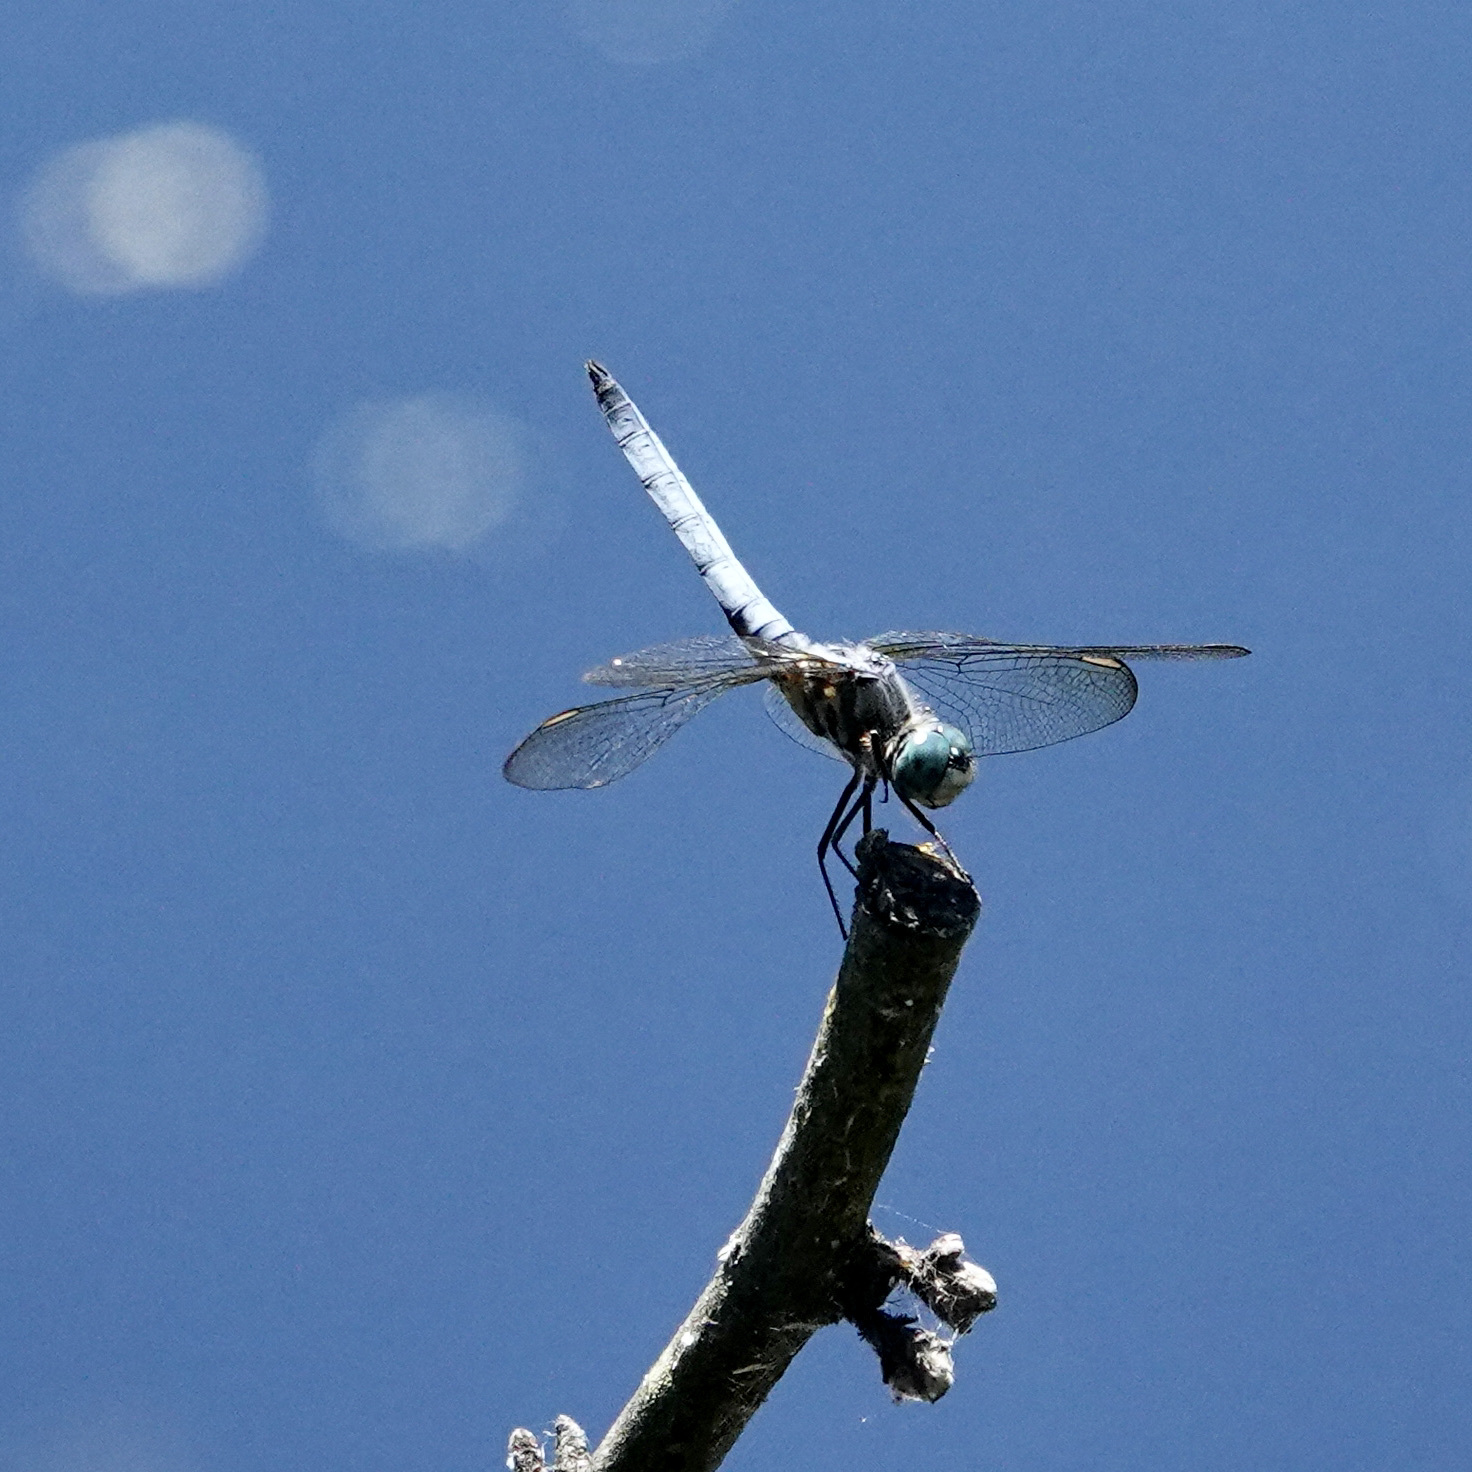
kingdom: Animalia
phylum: Arthropoda
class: Insecta
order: Odonata
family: Libellulidae
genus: Pachydiplax
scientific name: Pachydiplax longipennis
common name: Blue dasher
